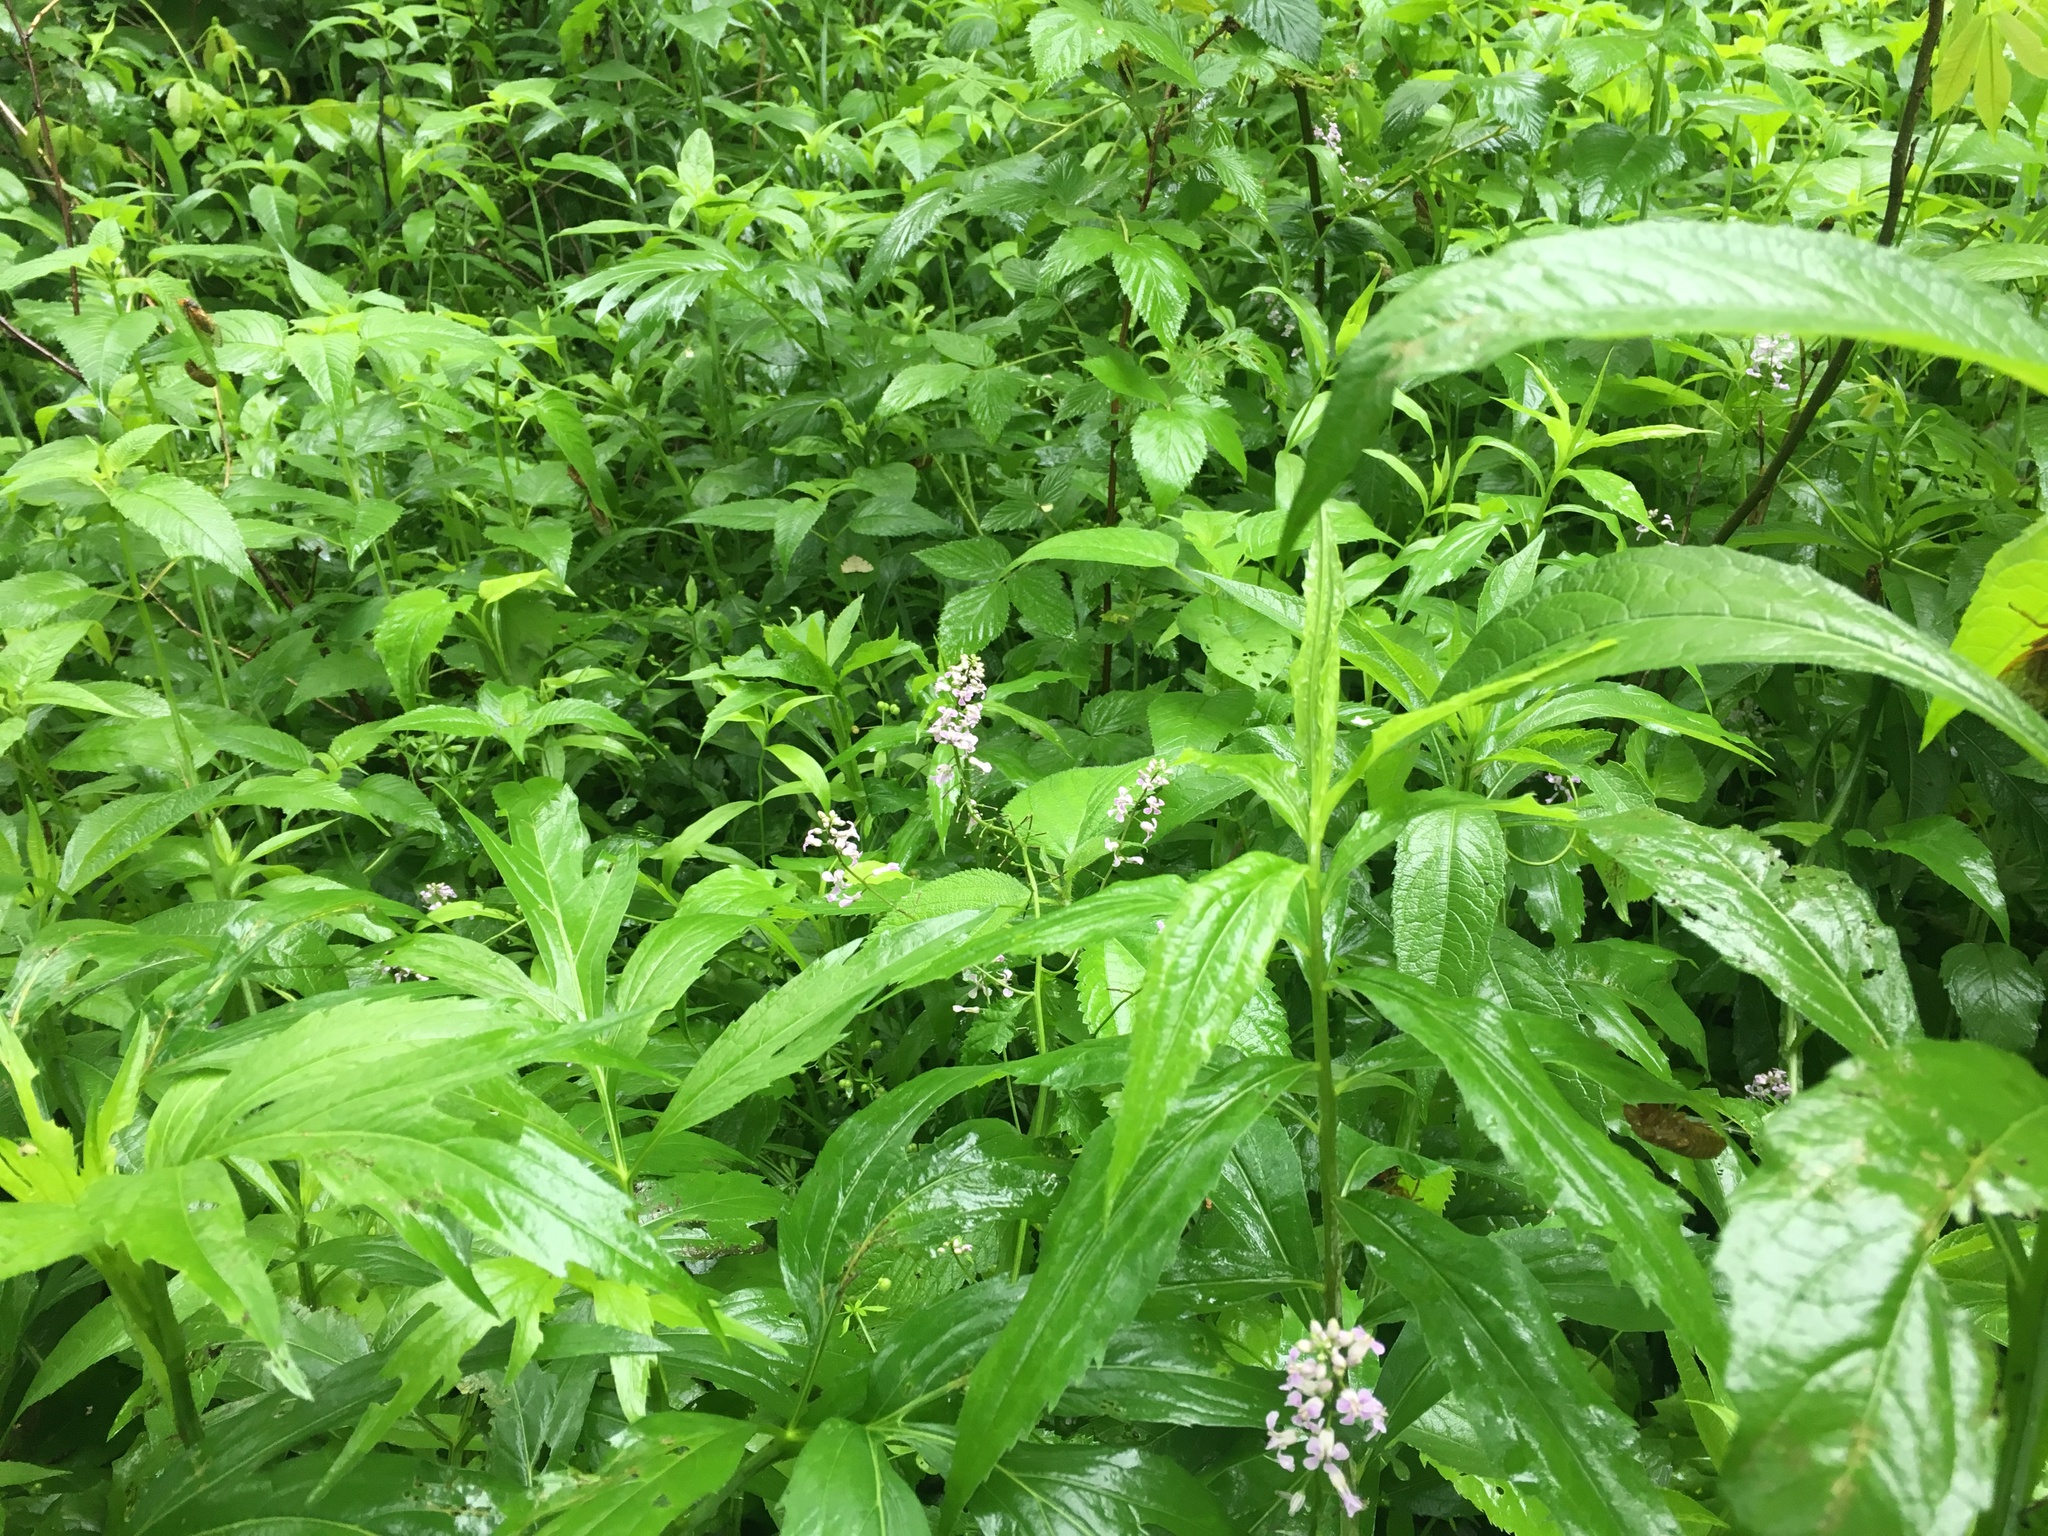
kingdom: Plantae
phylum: Tracheophyta
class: Magnoliopsida
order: Brassicales
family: Brassicaceae
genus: Iodanthus
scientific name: Iodanthus pinnatifidus
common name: Violet rocket
